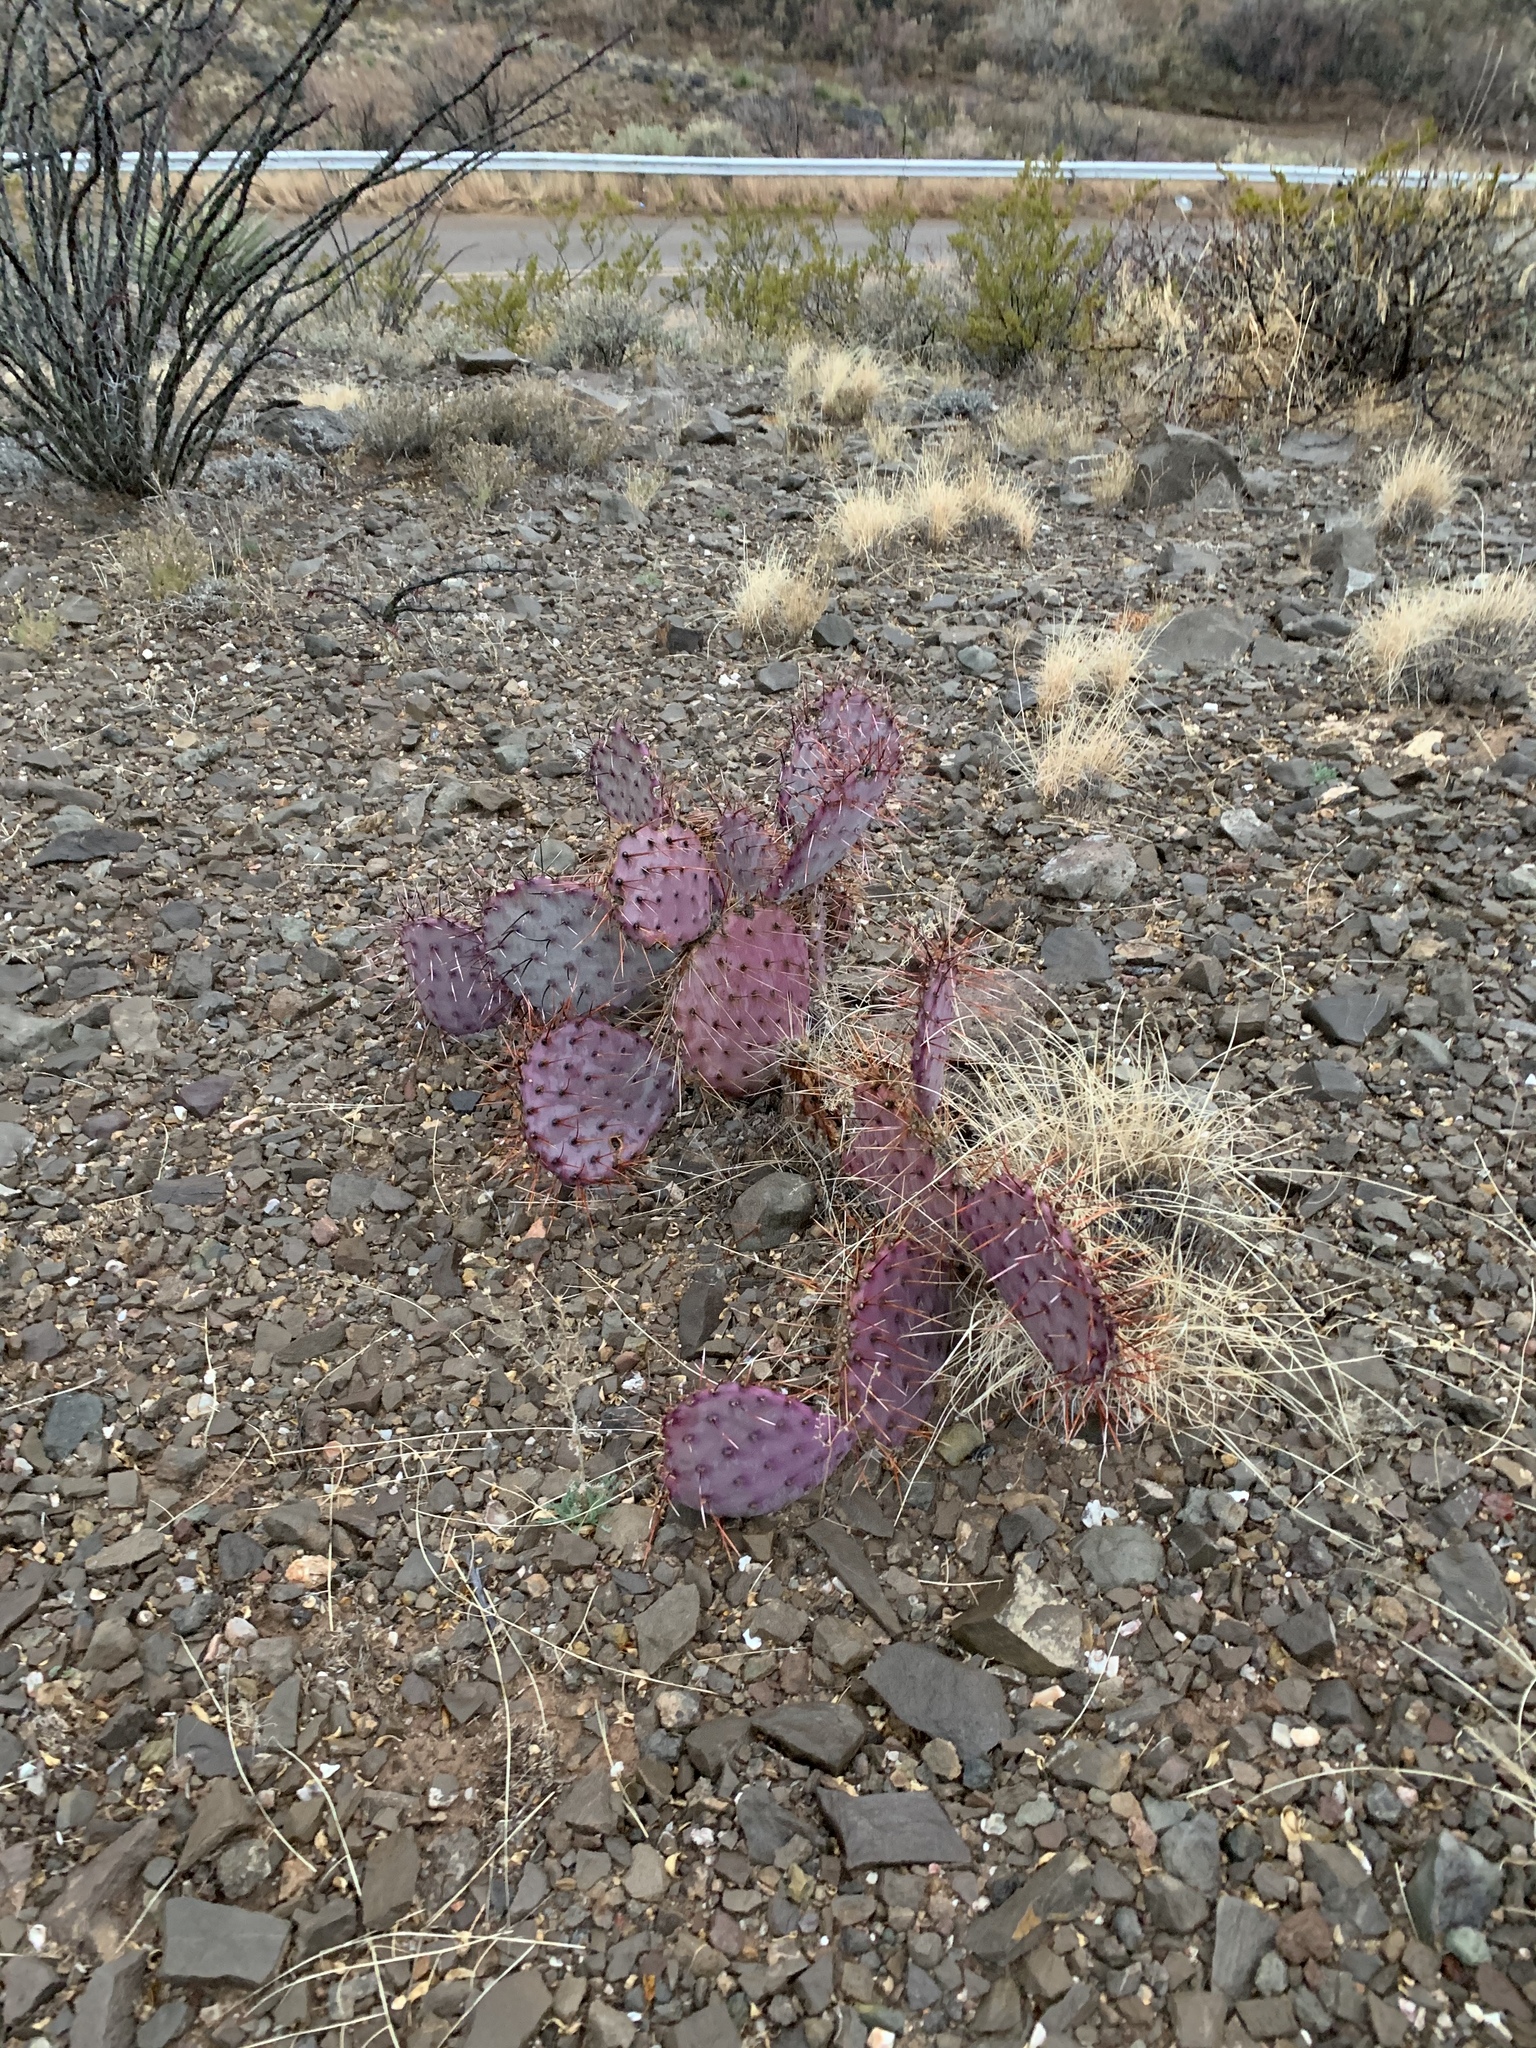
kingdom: Plantae
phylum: Tracheophyta
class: Magnoliopsida
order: Caryophyllales
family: Cactaceae
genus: Opuntia
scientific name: Opuntia macrocentra
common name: Purple prickly-pear
